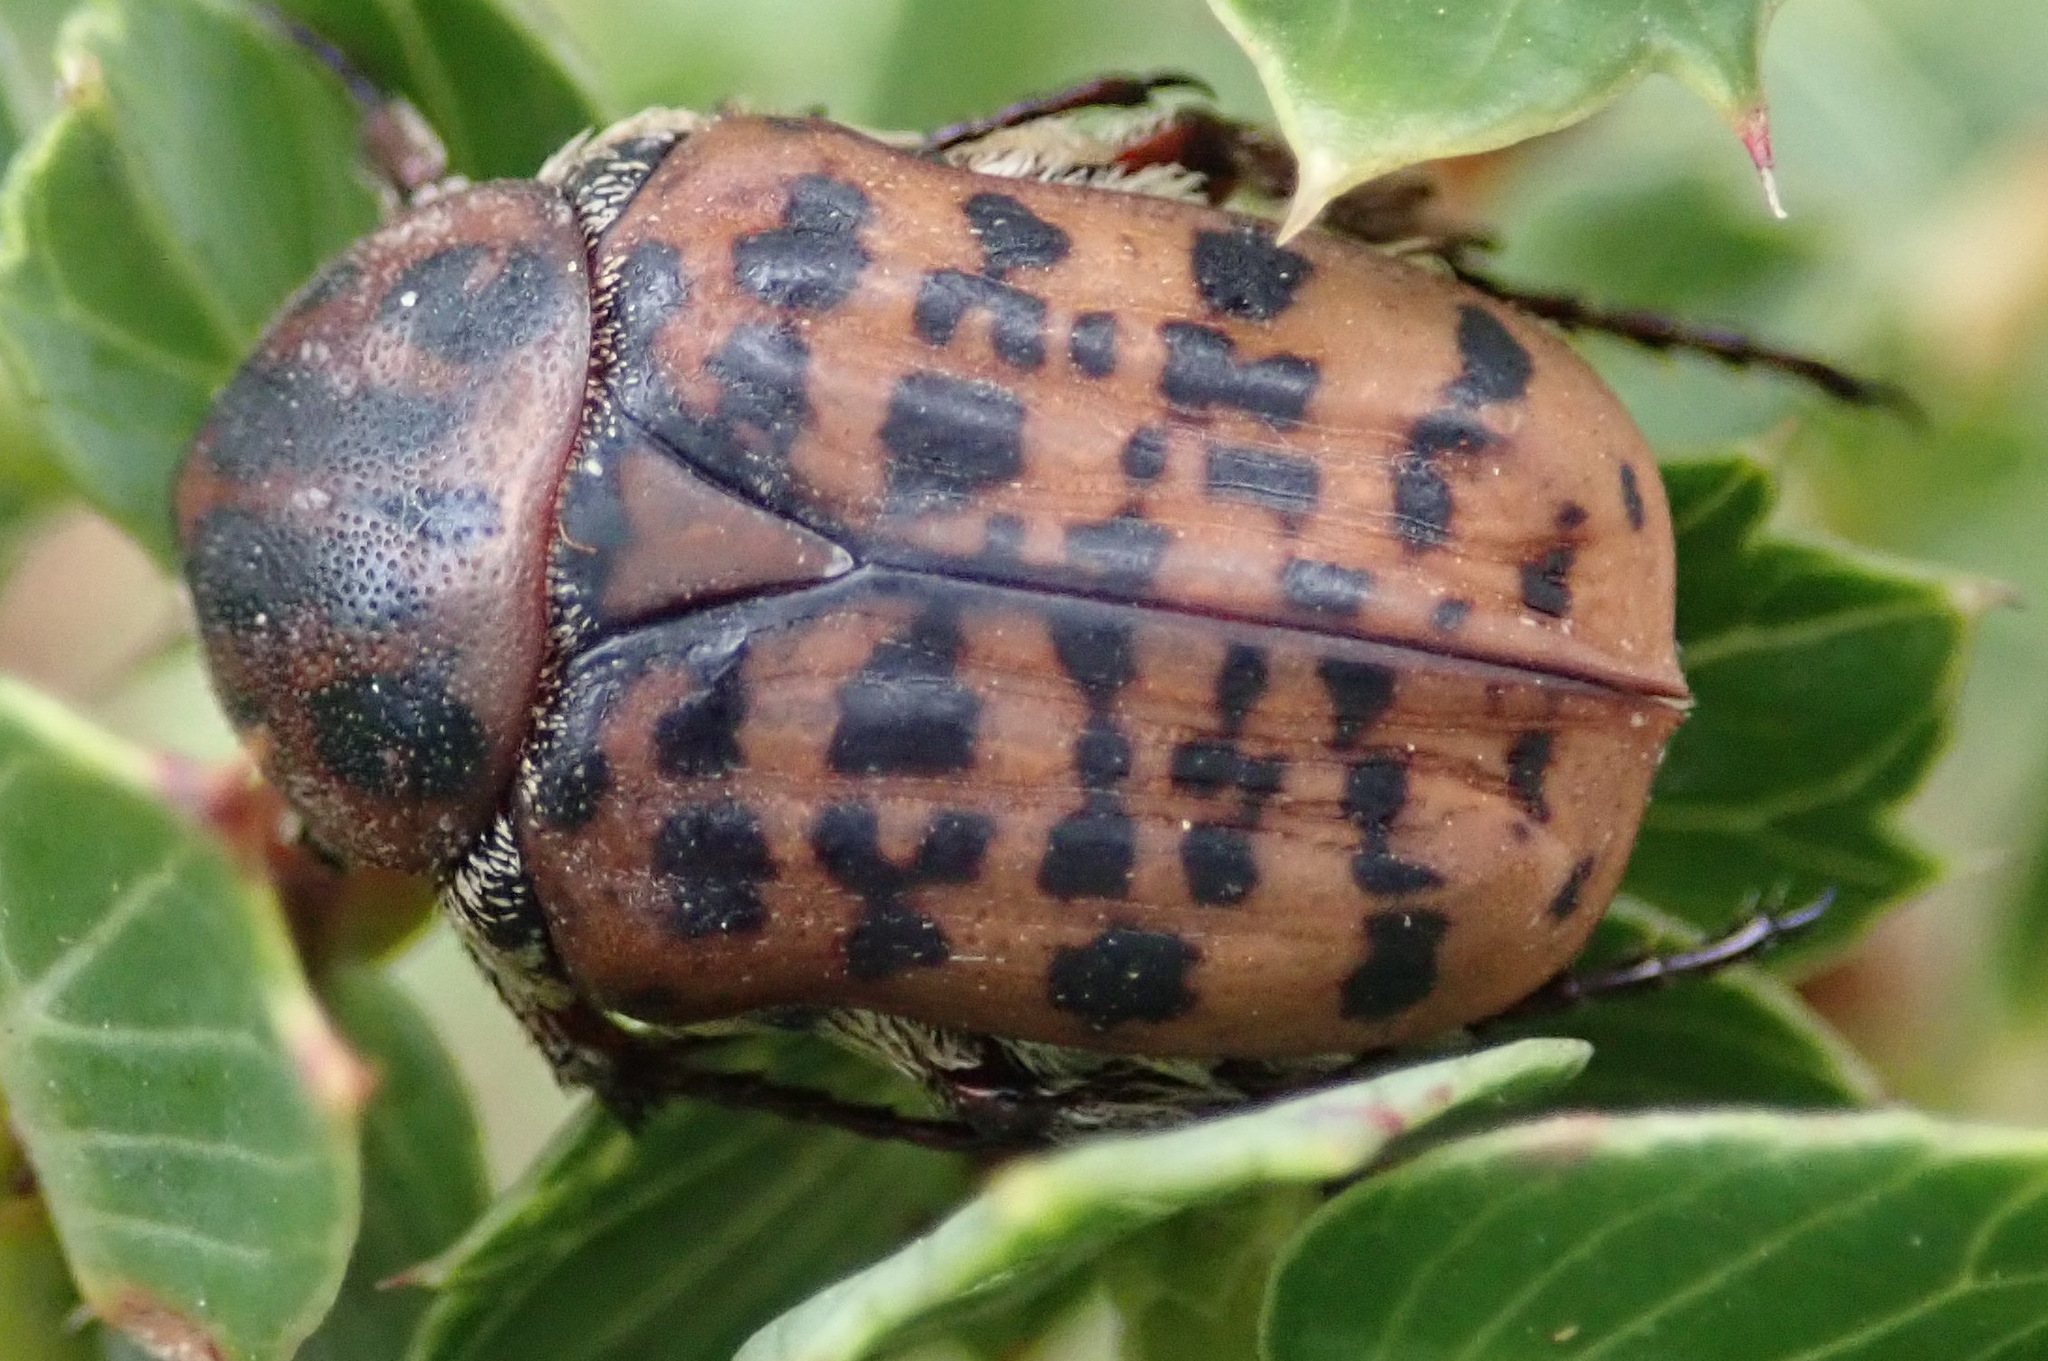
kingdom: Animalia
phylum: Arthropoda
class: Insecta
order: Coleoptera
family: Scarabaeidae
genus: Atrichelaphinis
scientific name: Atrichelaphinis tigrina
